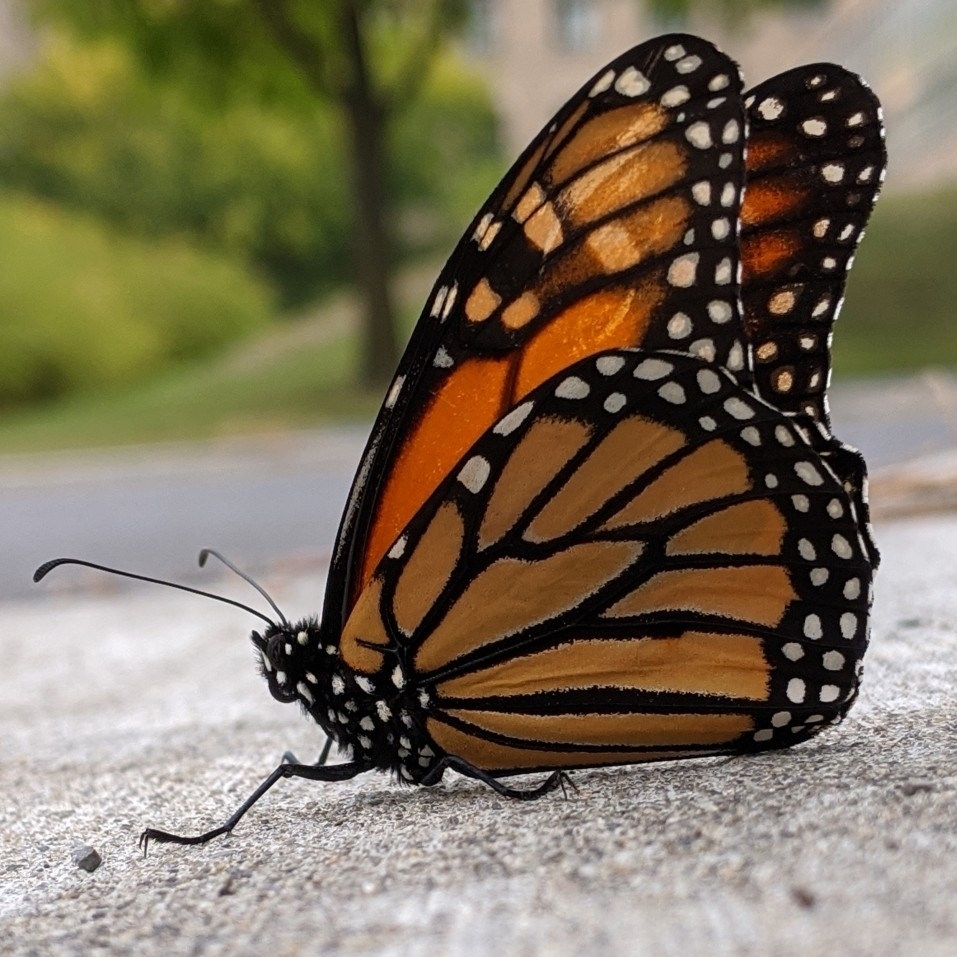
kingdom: Animalia
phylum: Arthropoda
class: Insecta
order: Lepidoptera
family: Nymphalidae
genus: Danaus
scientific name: Danaus plexippus
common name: Monarch
